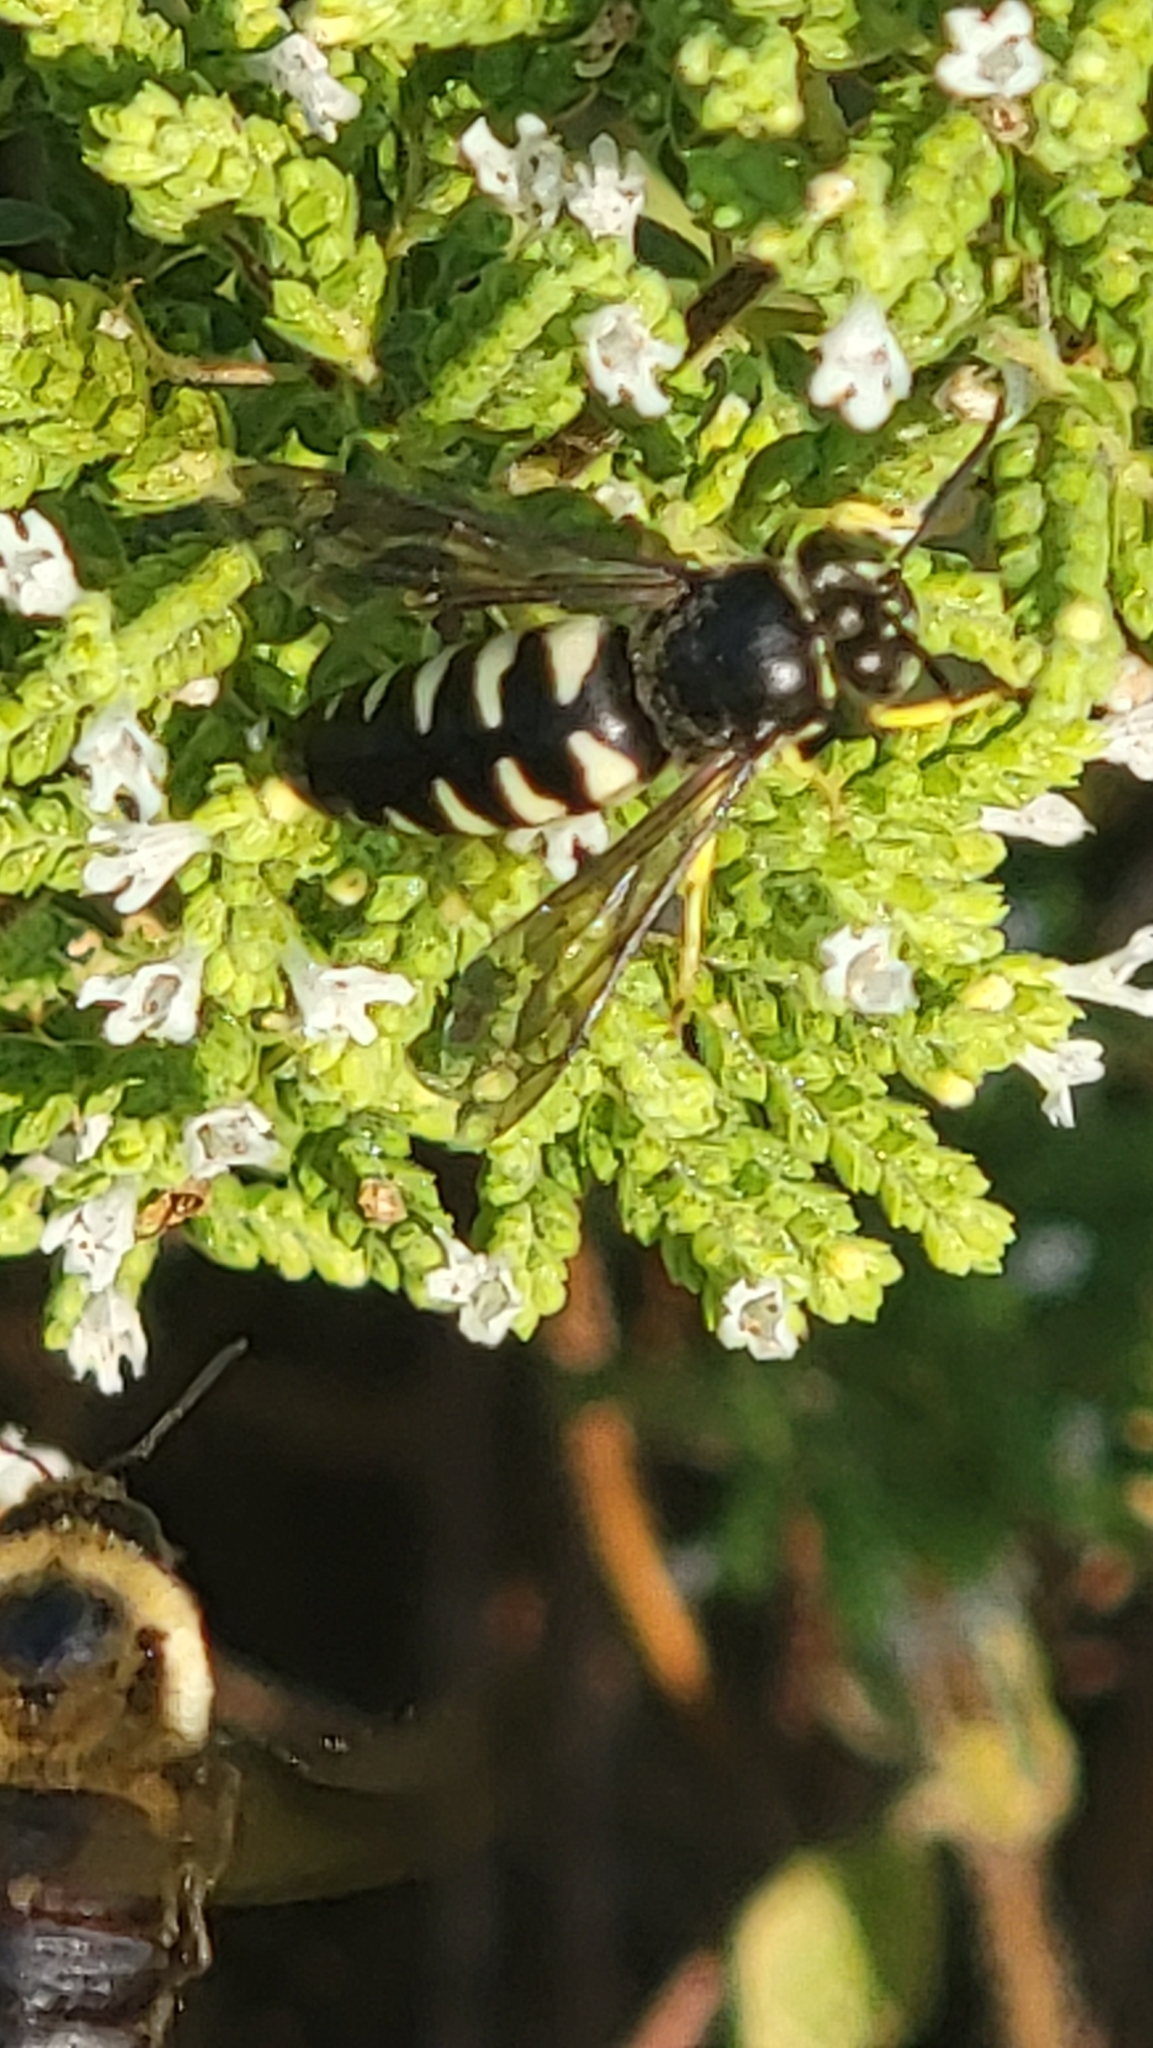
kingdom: Animalia
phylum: Arthropoda
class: Insecta
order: Hymenoptera
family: Crabronidae
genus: Bicyrtes
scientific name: Bicyrtes quadrifasciatus
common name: Four-banded stink bug hunter wasp
